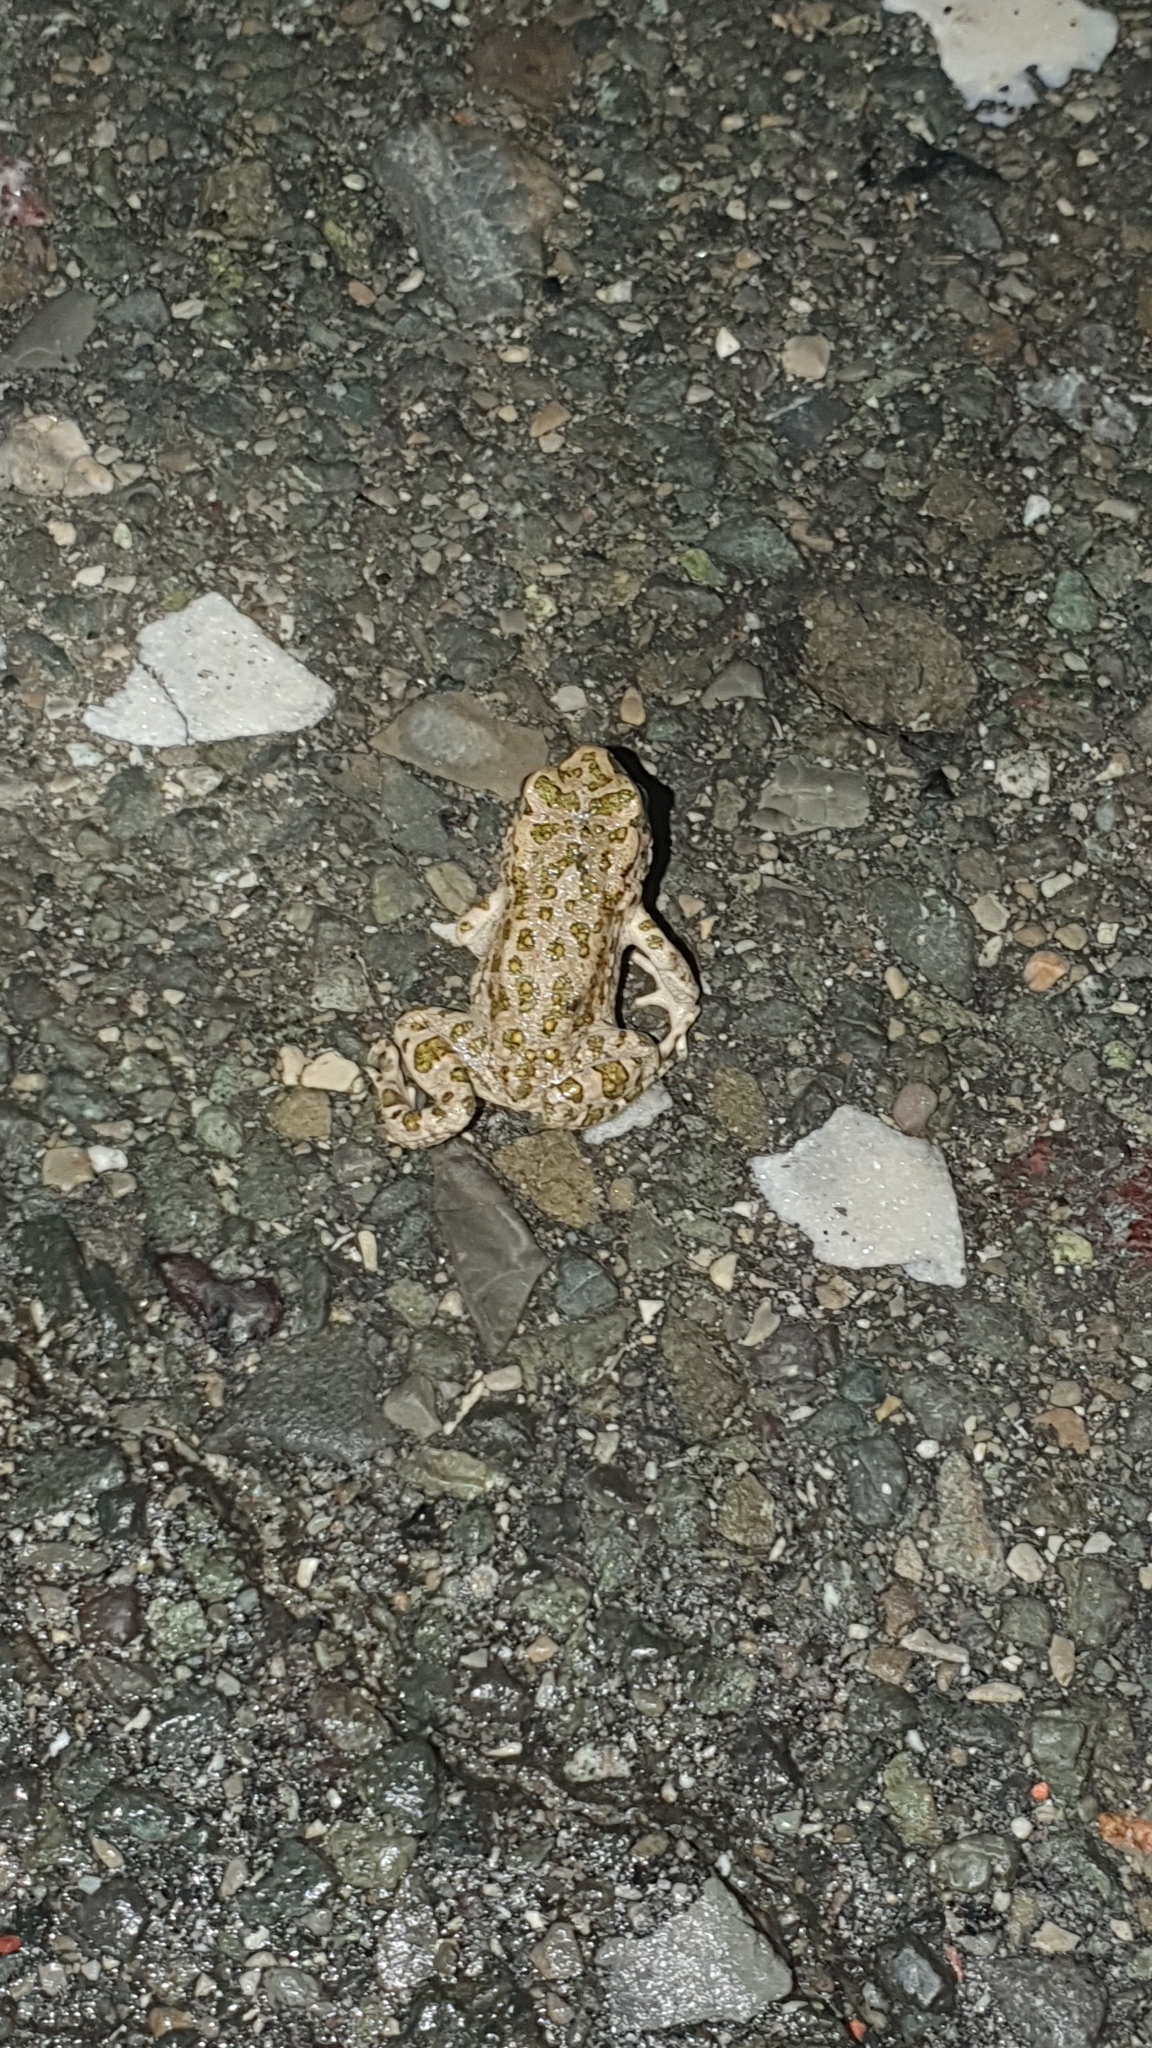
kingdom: Animalia
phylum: Chordata
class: Amphibia
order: Anura
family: Bufonidae
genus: Bufotes
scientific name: Bufotes viridis
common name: European green toad
